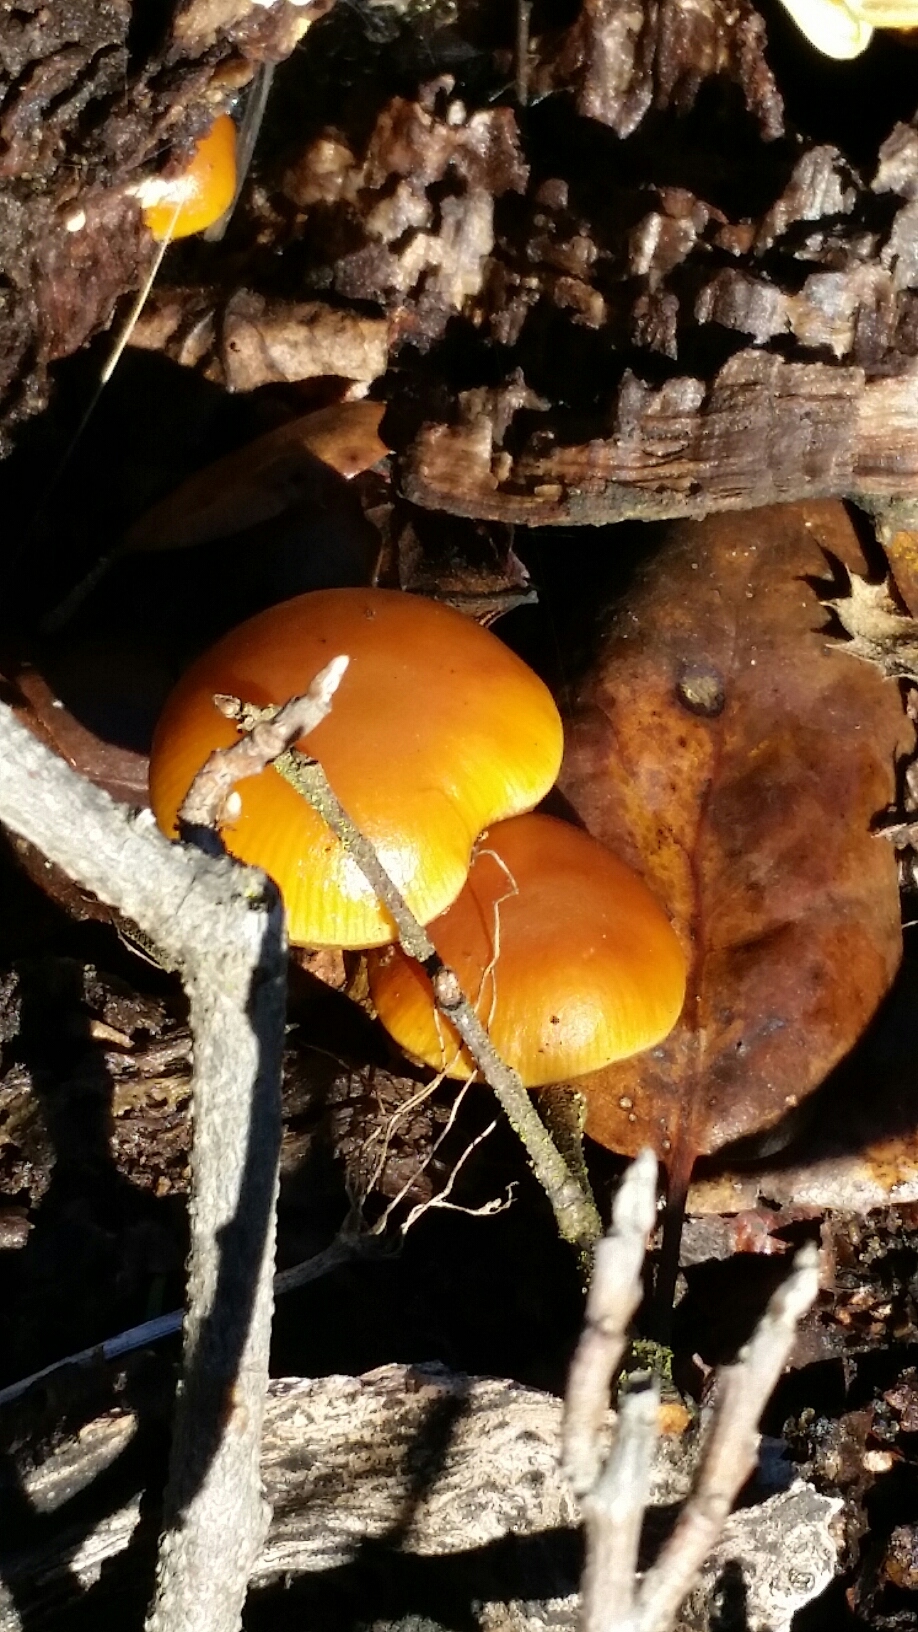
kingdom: Fungi
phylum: Basidiomycota
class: Agaricomycetes
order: Agaricales
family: Hymenogastraceae
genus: Galerina
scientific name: Galerina marginata
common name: Funeral bell
